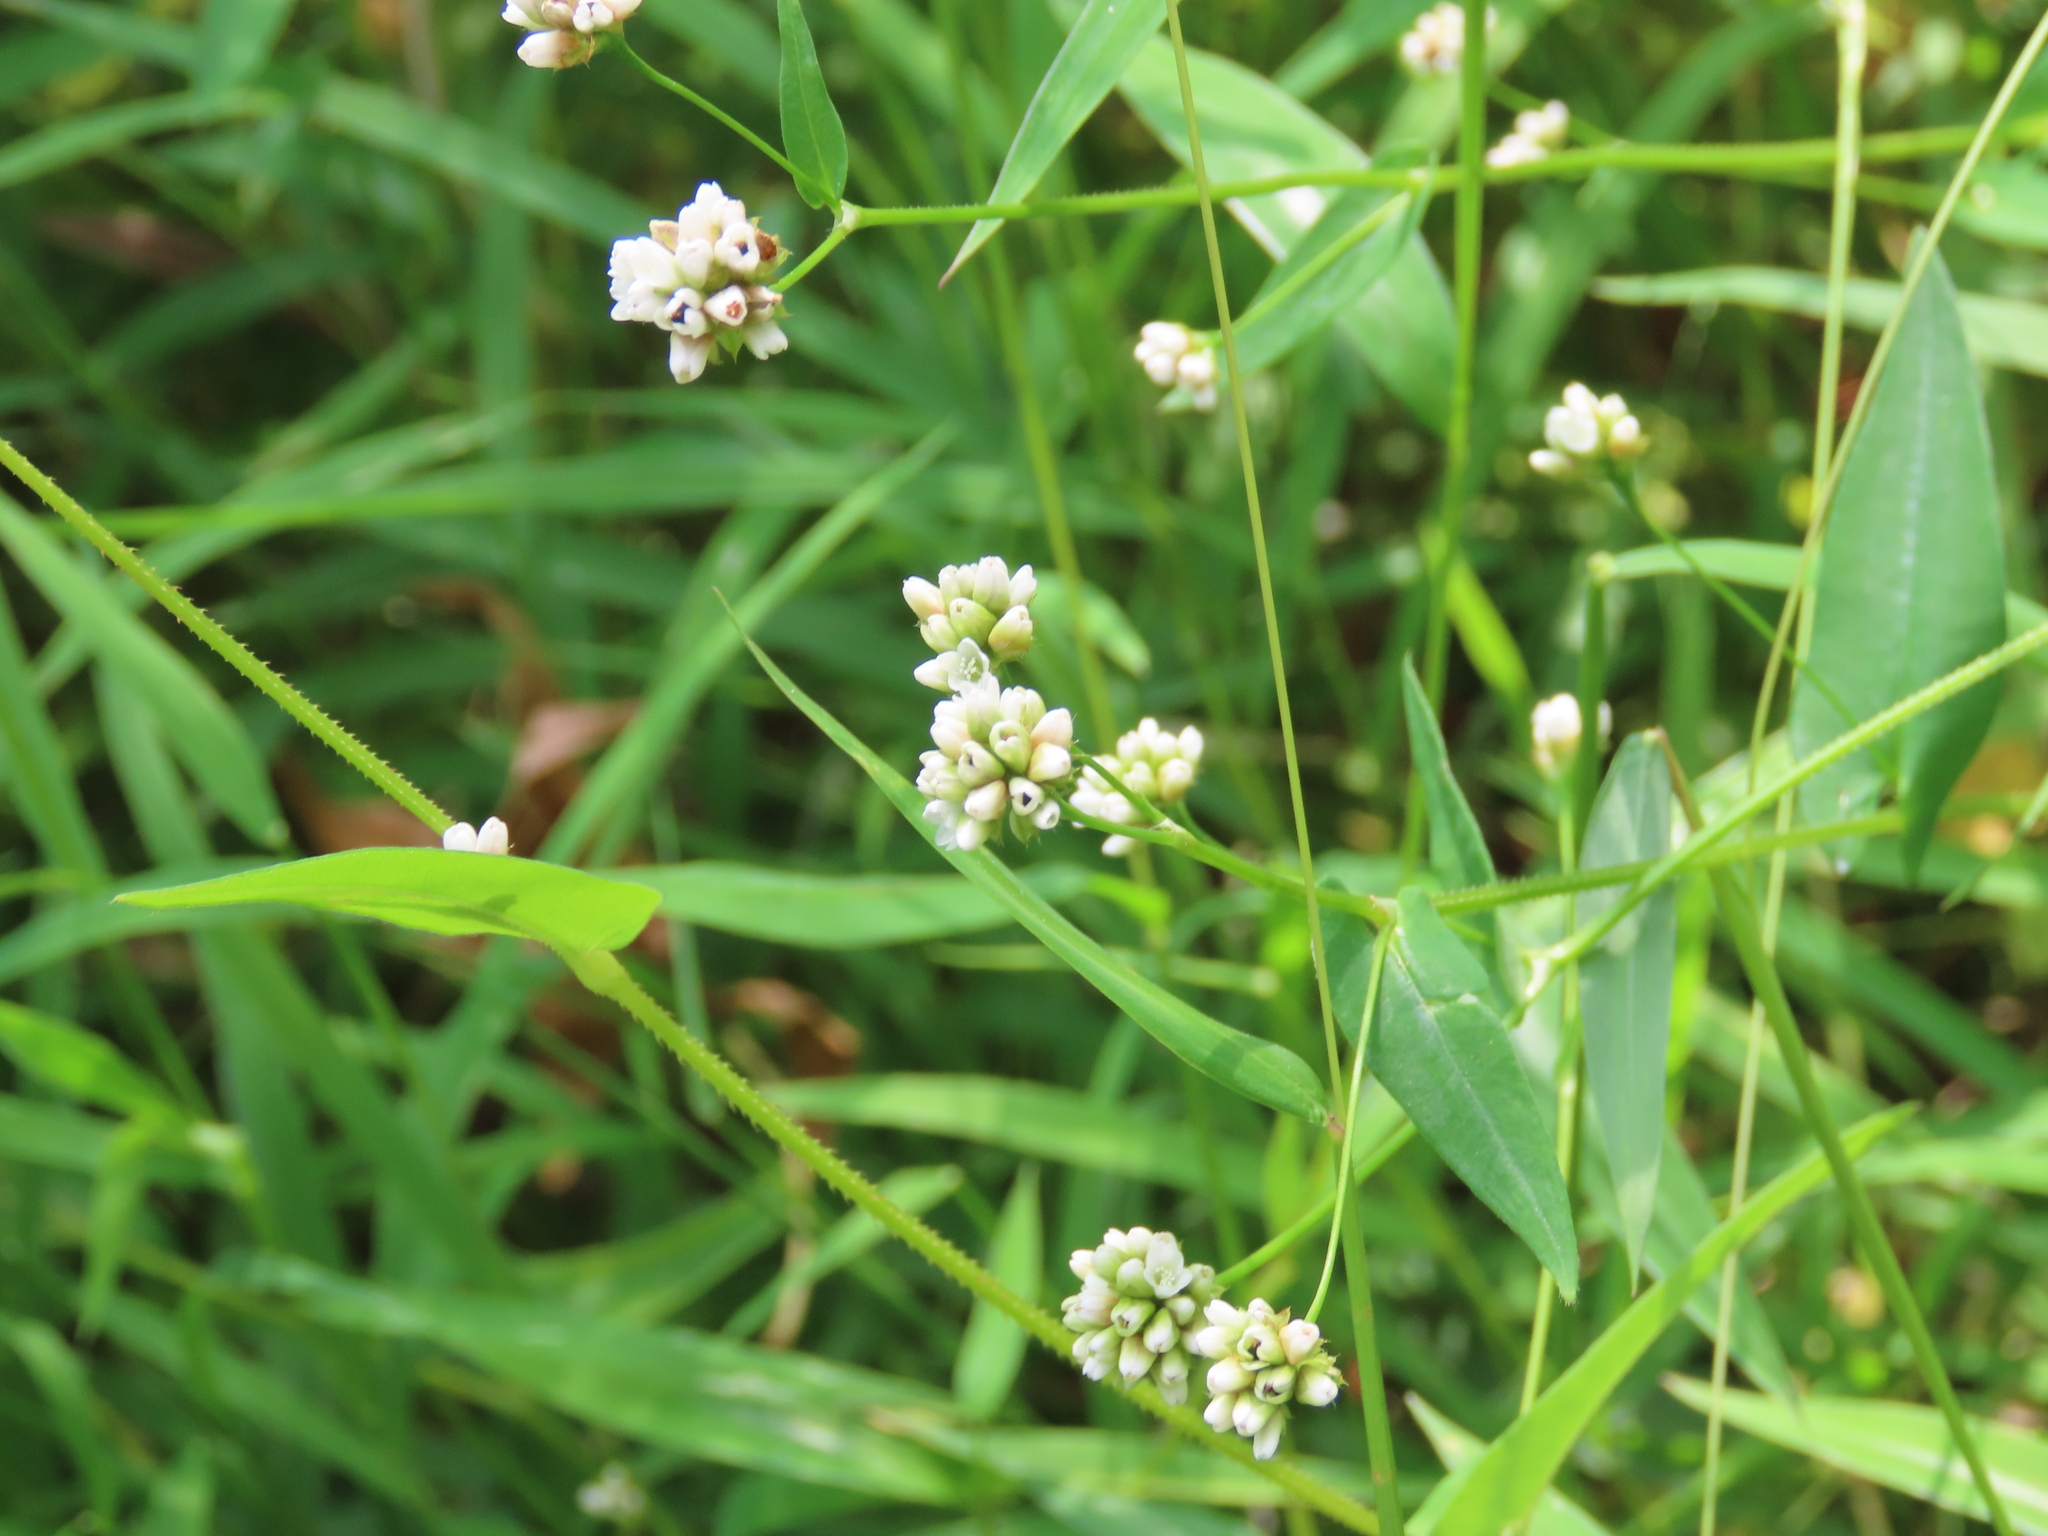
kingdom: Plantae
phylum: Tracheophyta
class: Magnoliopsida
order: Caryophyllales
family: Polygonaceae
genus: Persicaria
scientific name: Persicaria sagittata
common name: American tearthumb
